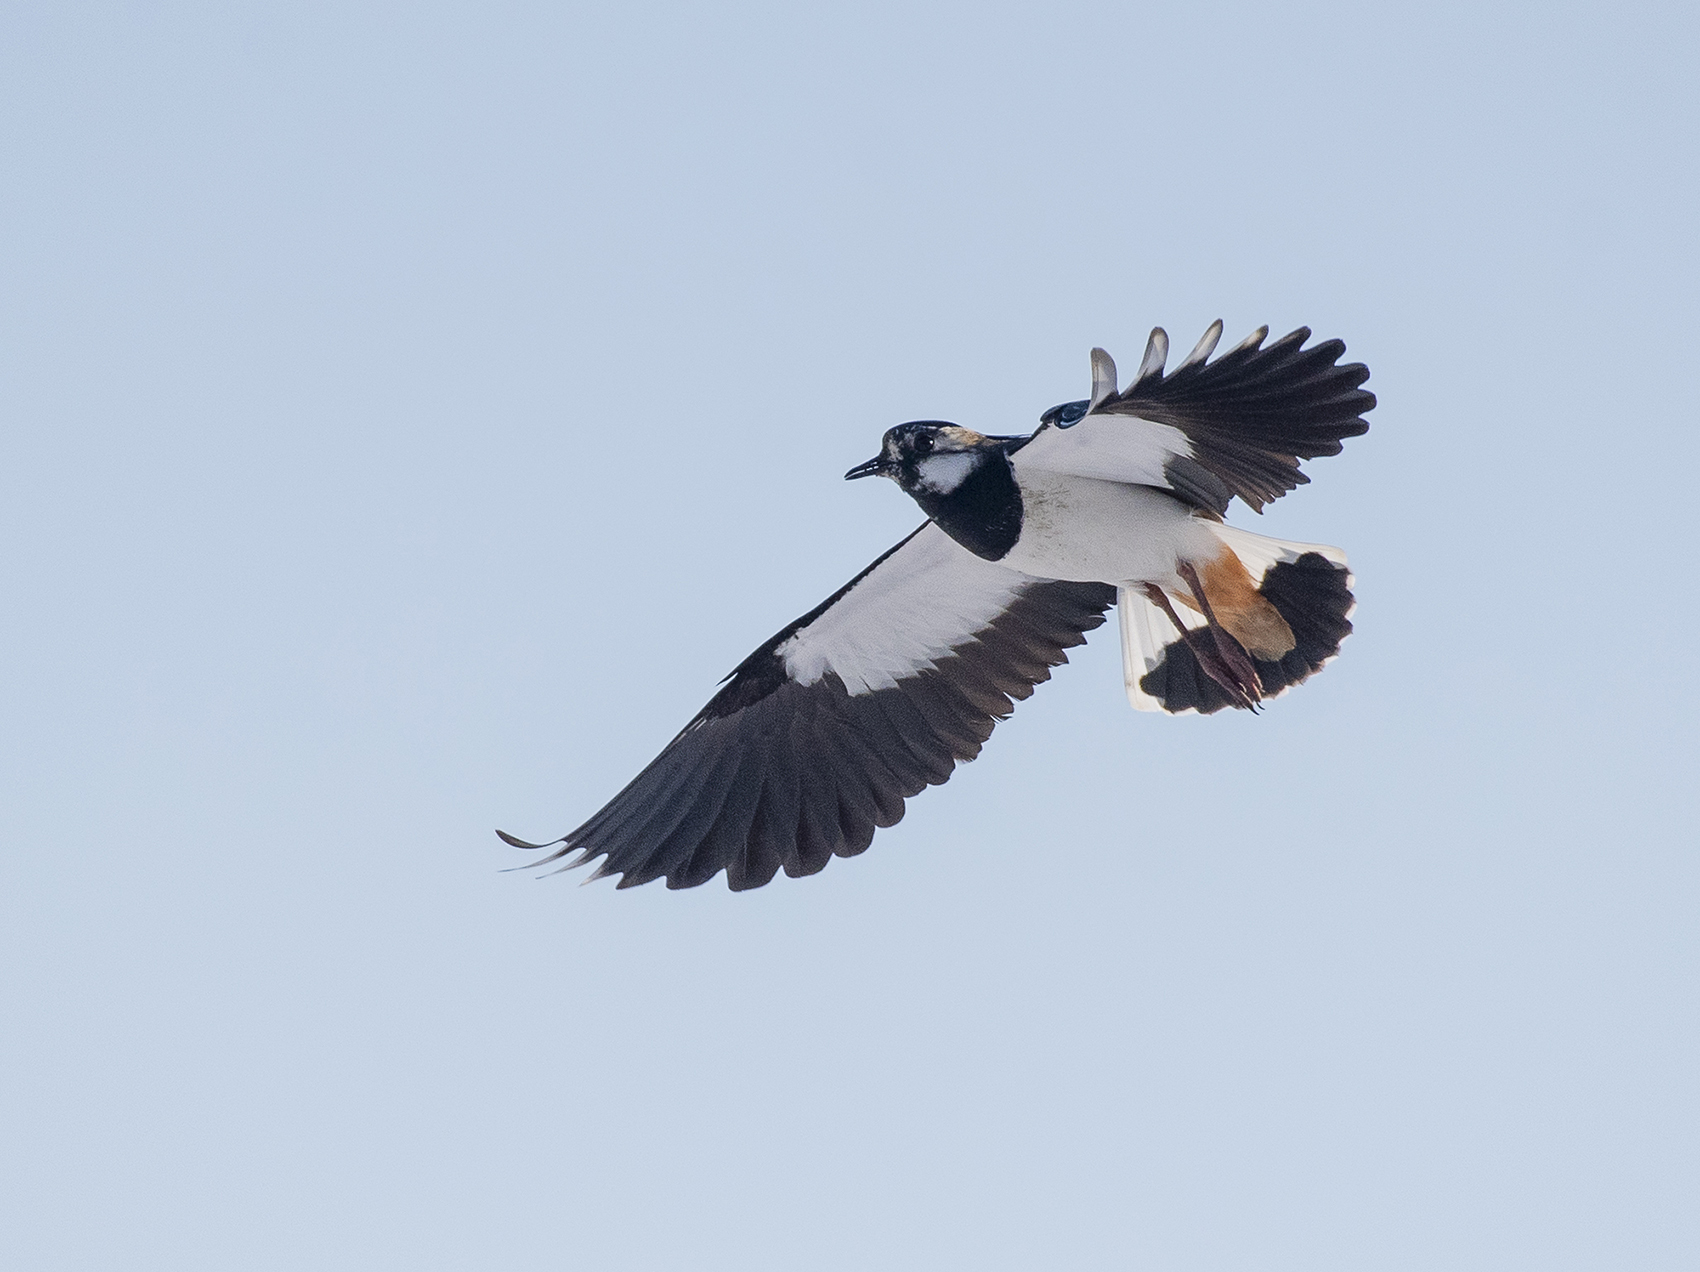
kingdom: Animalia
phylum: Chordata
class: Aves
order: Charadriiformes
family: Charadriidae
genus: Vanellus
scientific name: Vanellus vanellus
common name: Northern lapwing
